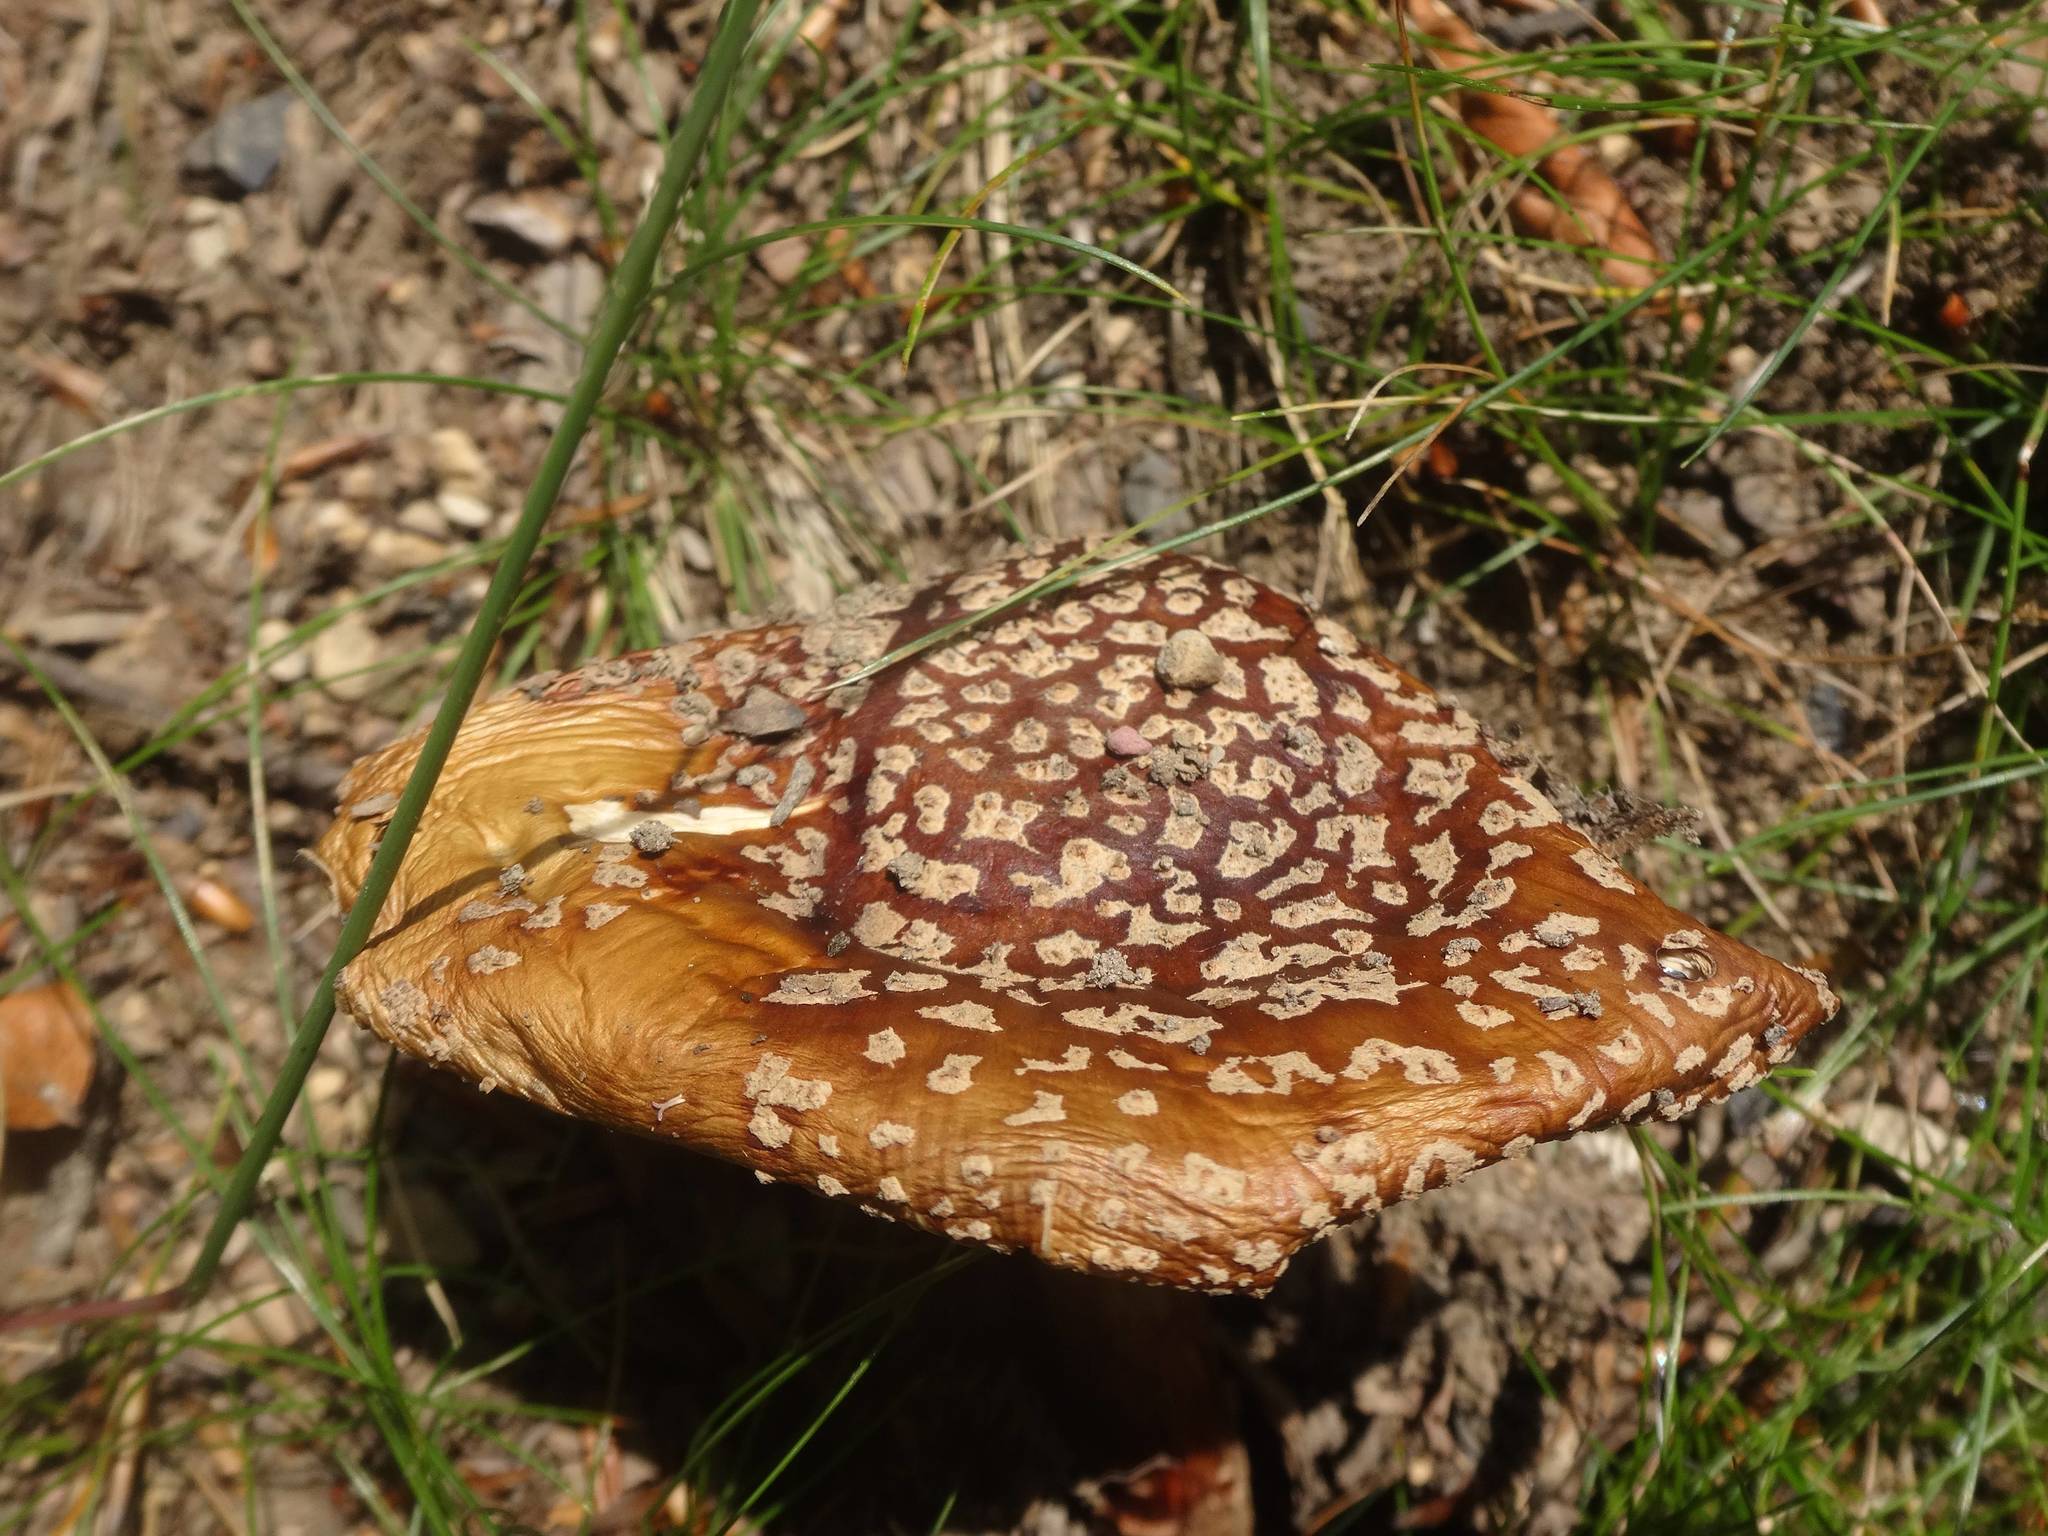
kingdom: Fungi
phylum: Basidiomycota
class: Agaricomycetes
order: Agaricales
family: Amanitaceae
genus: Amanita
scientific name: Amanita rubescens
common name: Blusher
